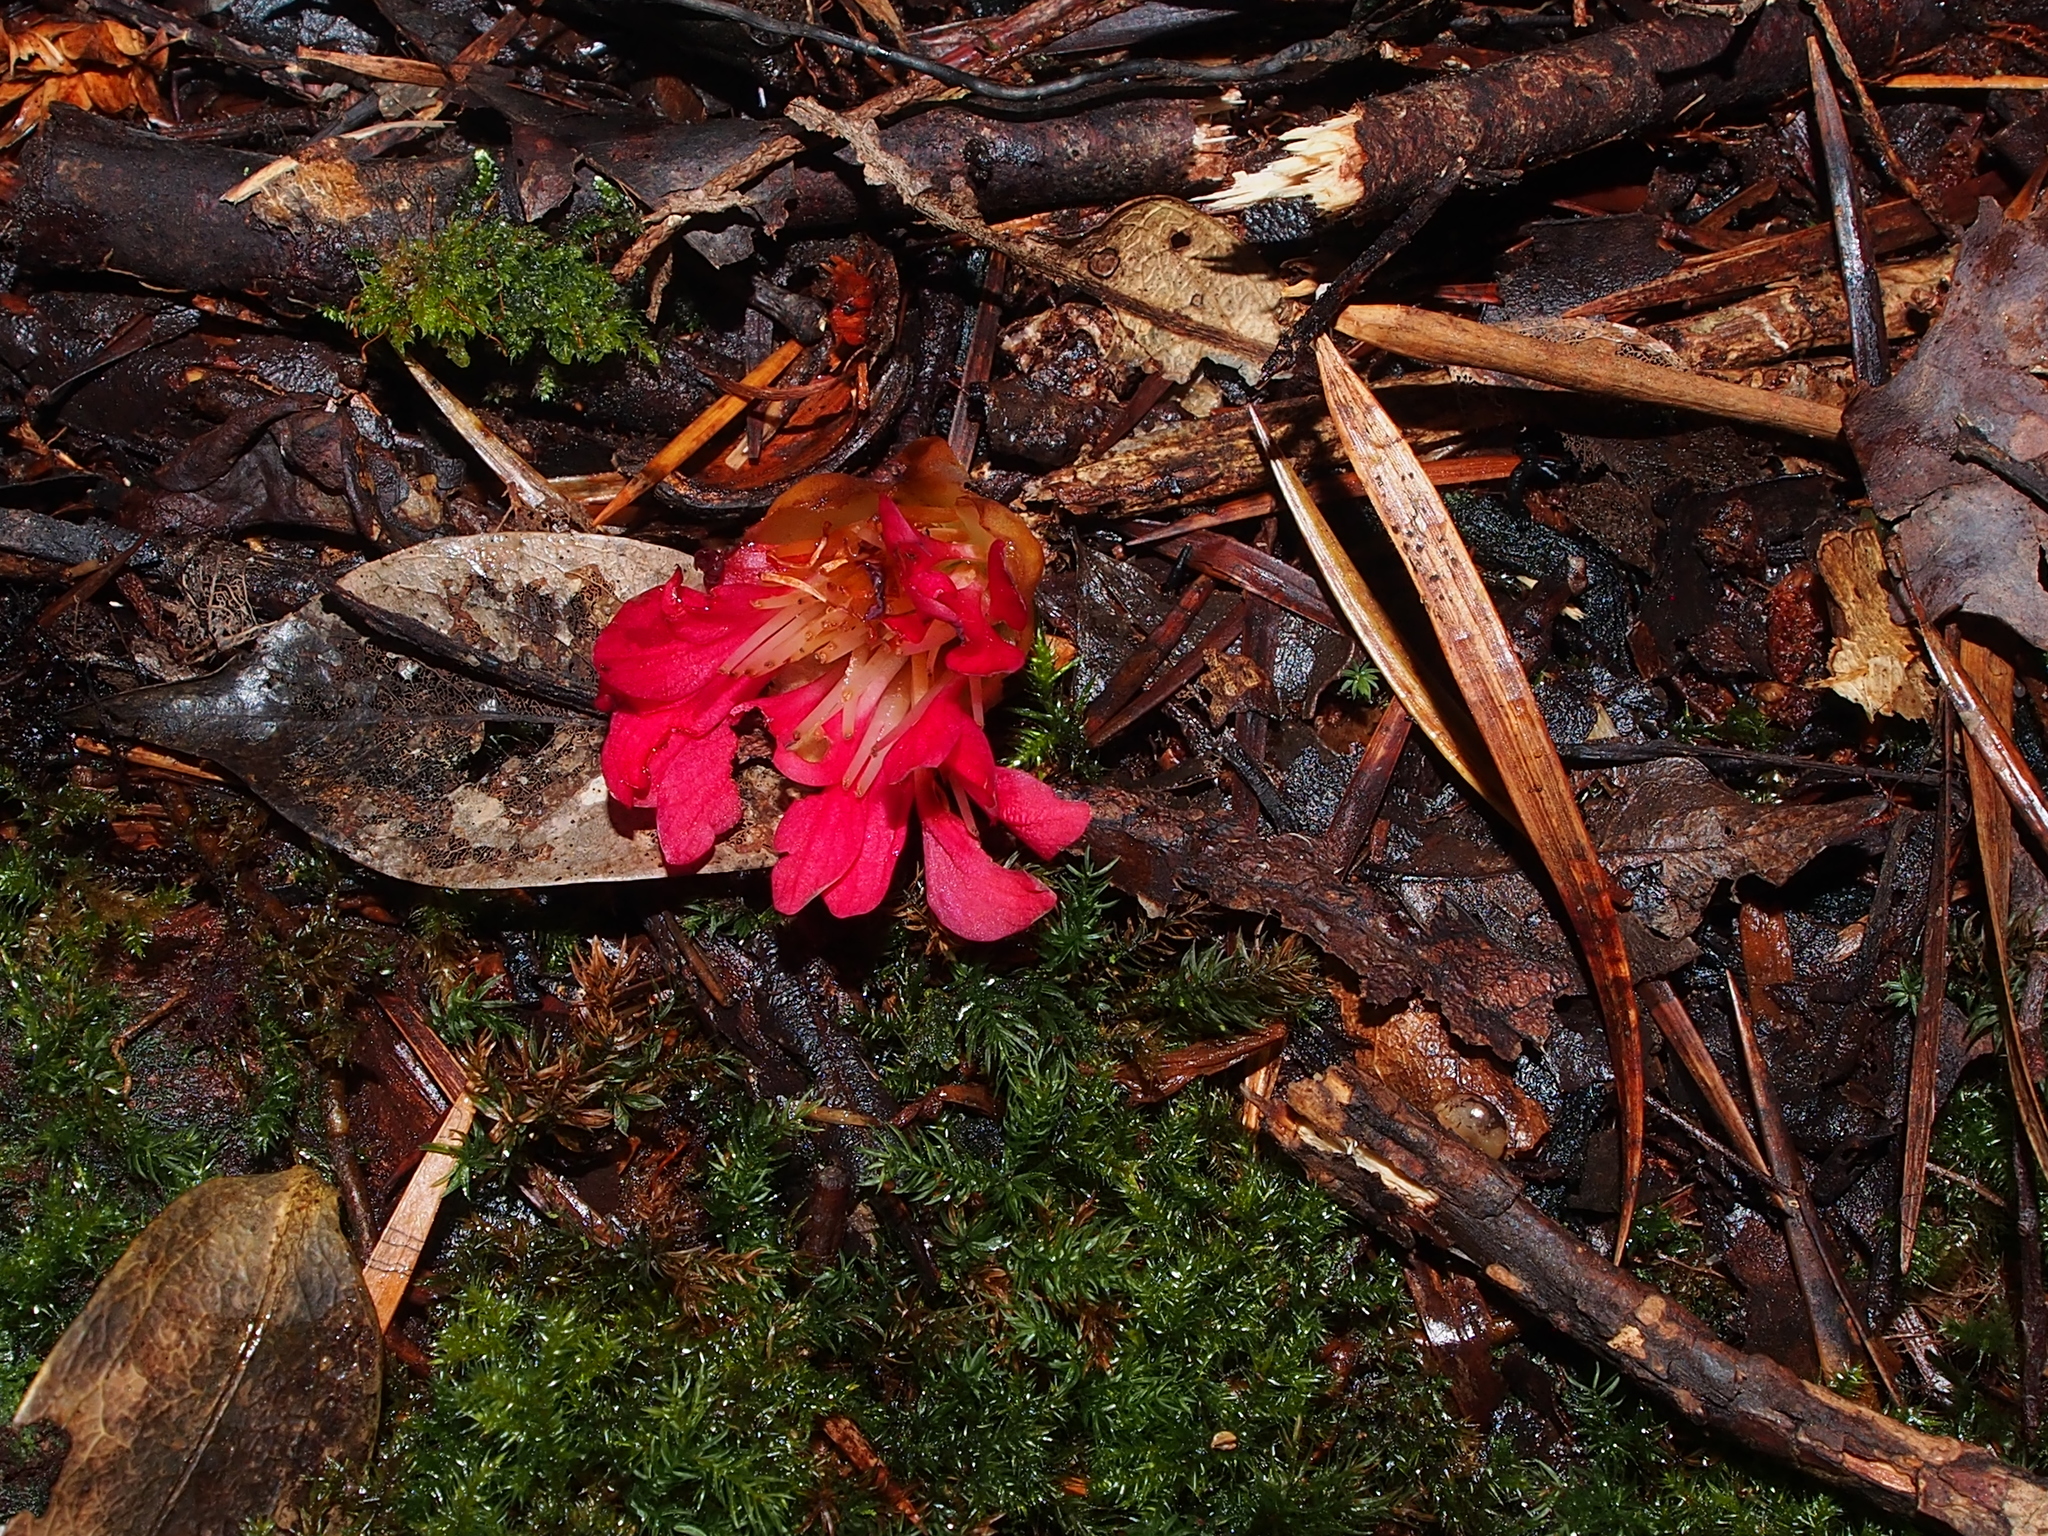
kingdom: Plantae
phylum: Tracheophyta
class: Magnoliopsida
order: Saxifragales
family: Hamamelidaceae
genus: Rhodoleia
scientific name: Rhodoleia championii
